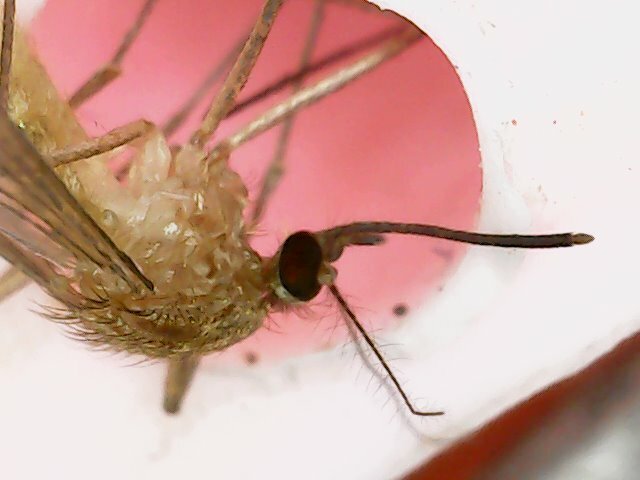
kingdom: Animalia
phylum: Arthropoda
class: Insecta
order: Diptera
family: Culicidae
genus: Culex
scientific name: Culex quinquefasciatus
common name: Southern house mosquito
